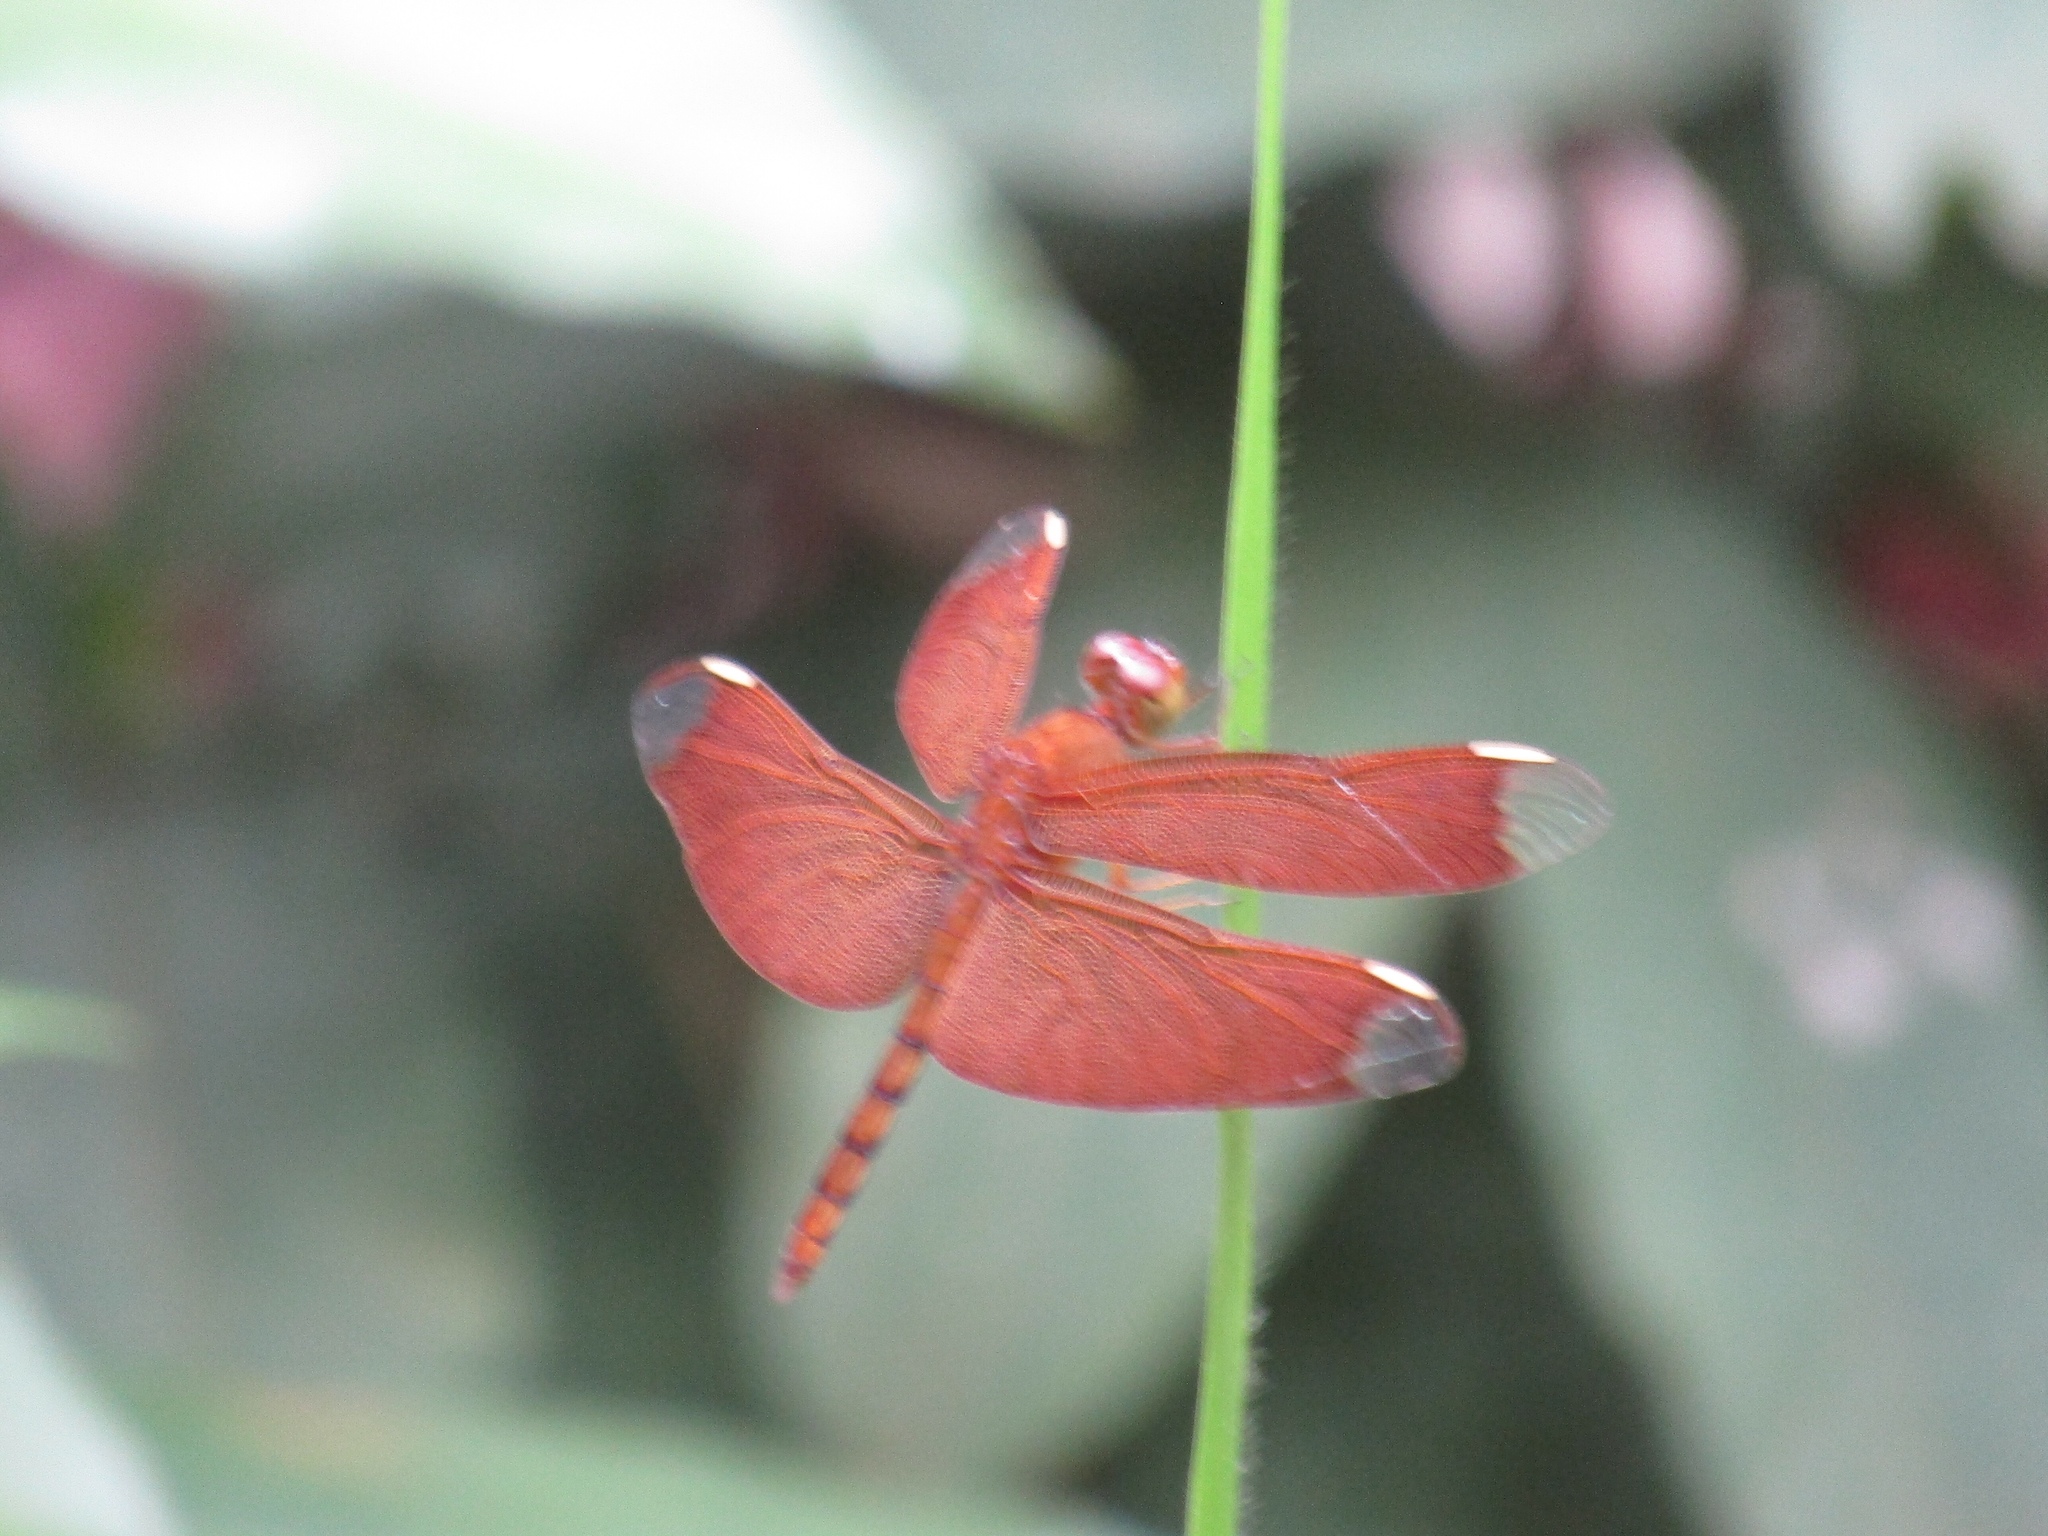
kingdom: Animalia
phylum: Arthropoda
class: Insecta
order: Odonata
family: Libellulidae
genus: Neurothemis
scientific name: Neurothemis fulvia
